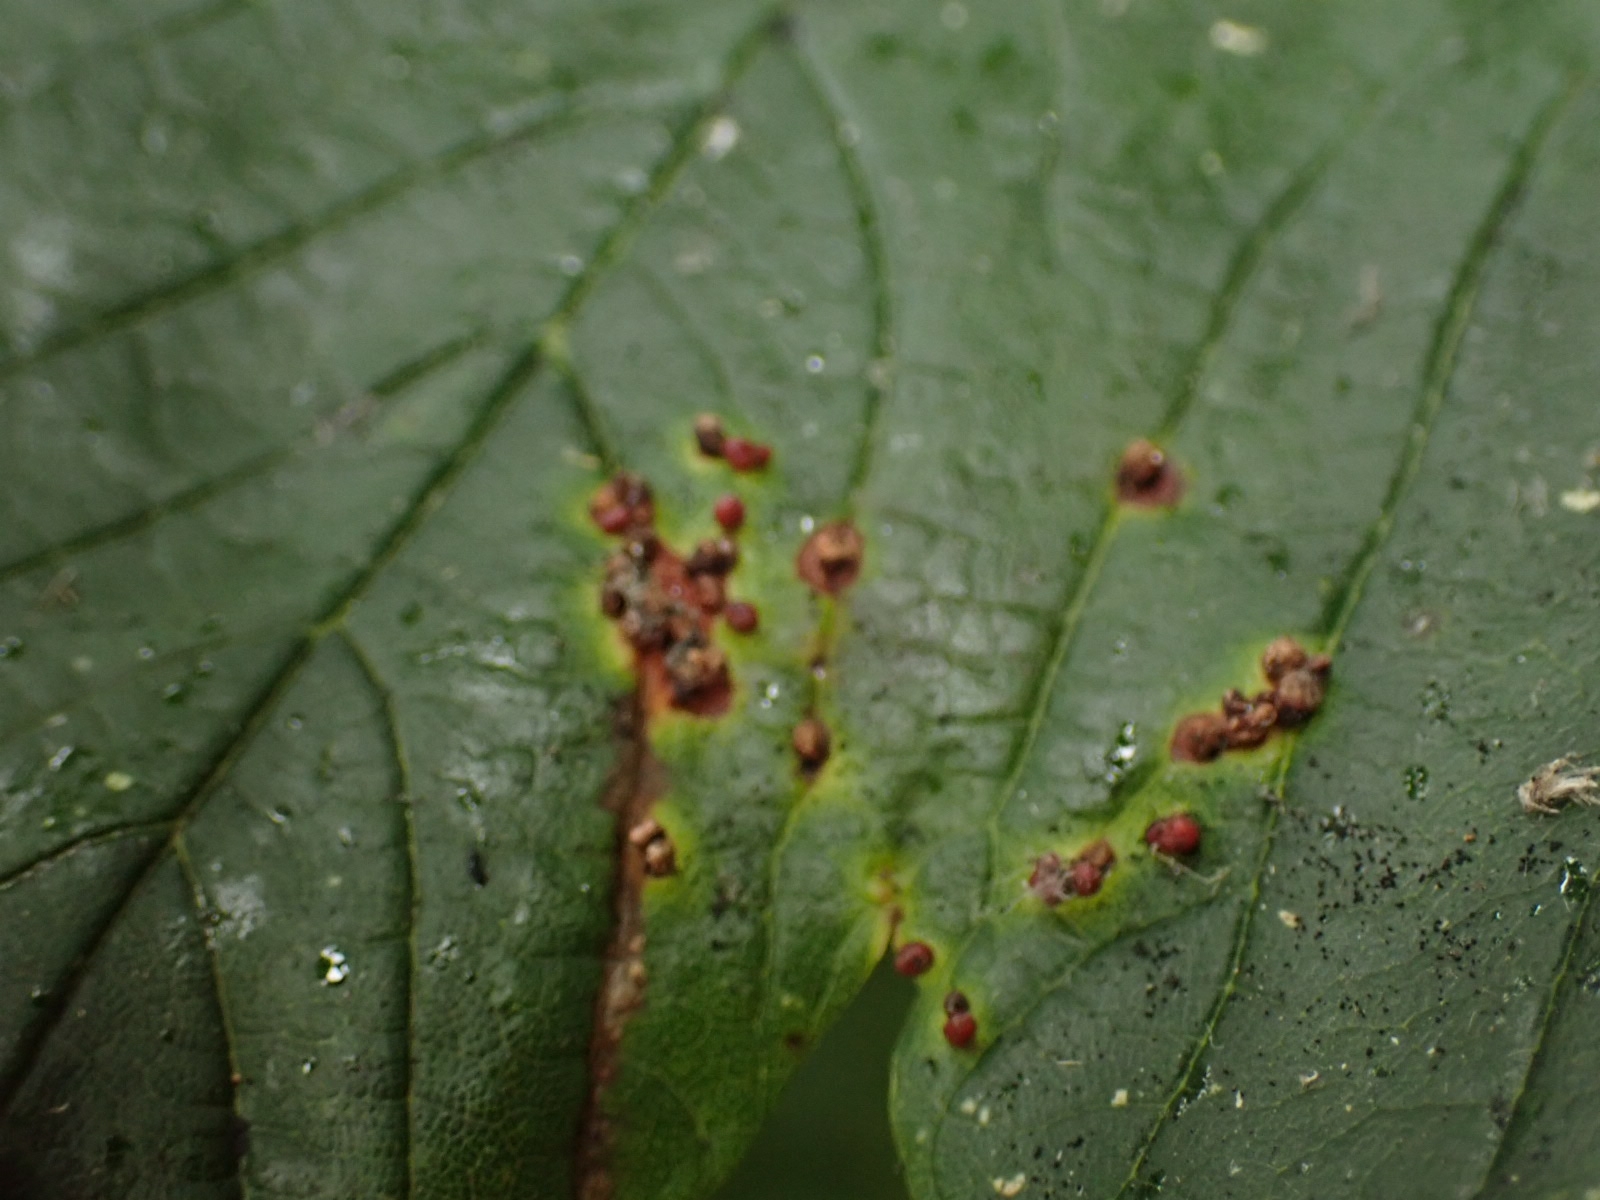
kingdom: Animalia
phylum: Arthropoda
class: Arachnida
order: Trombidiformes
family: Eriophyidae
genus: Aceria
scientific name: Aceria cephaloneus
